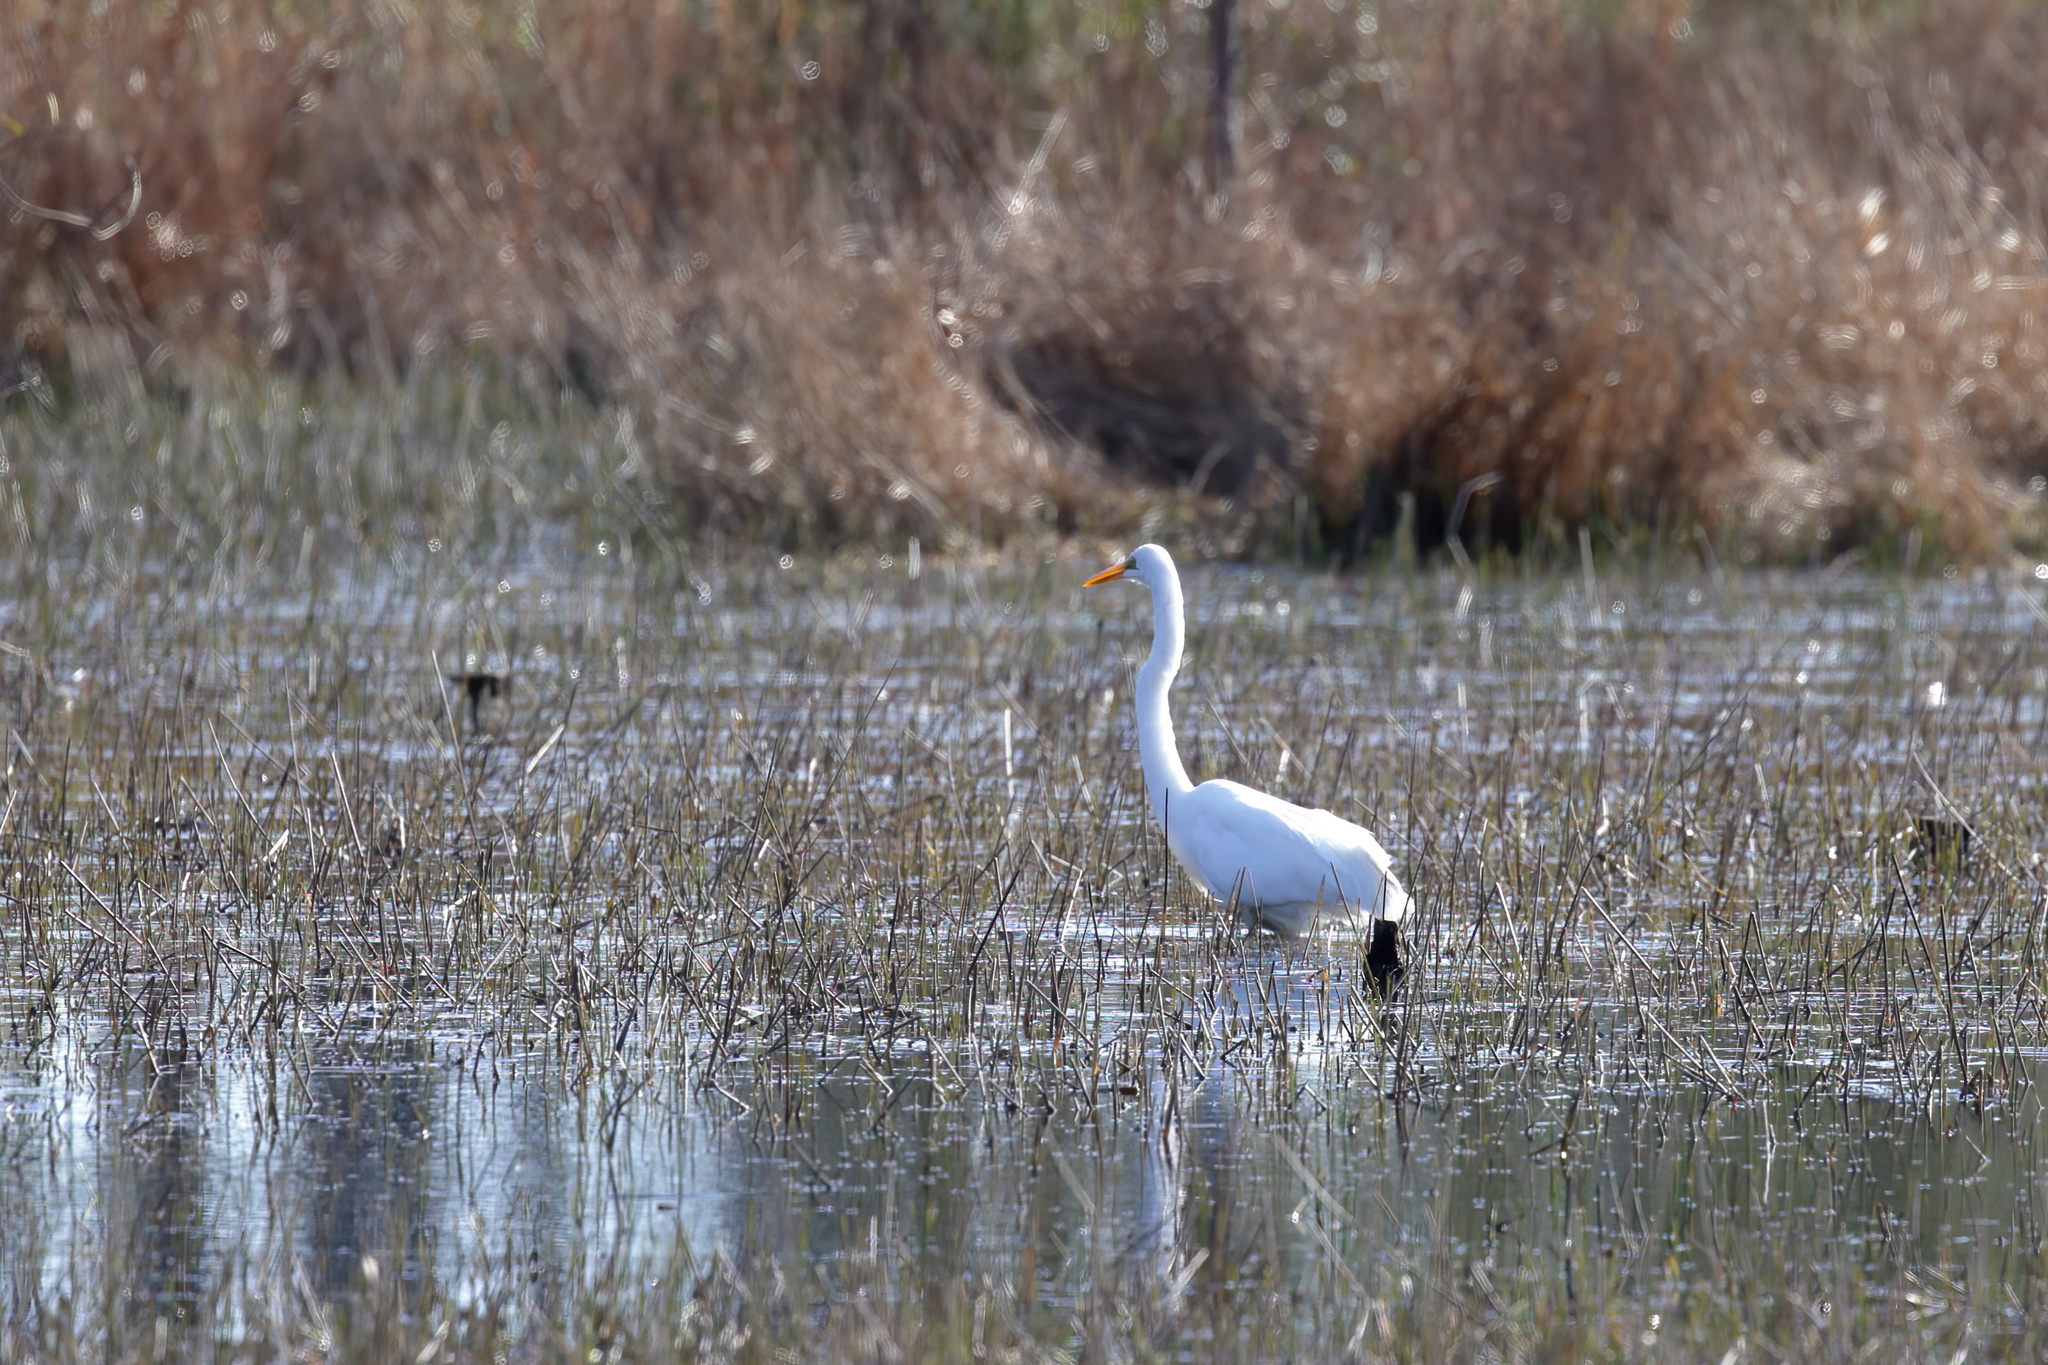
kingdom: Animalia
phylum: Chordata
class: Aves
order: Pelecaniformes
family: Ardeidae
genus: Ardea
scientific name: Ardea alba
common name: Great egret
